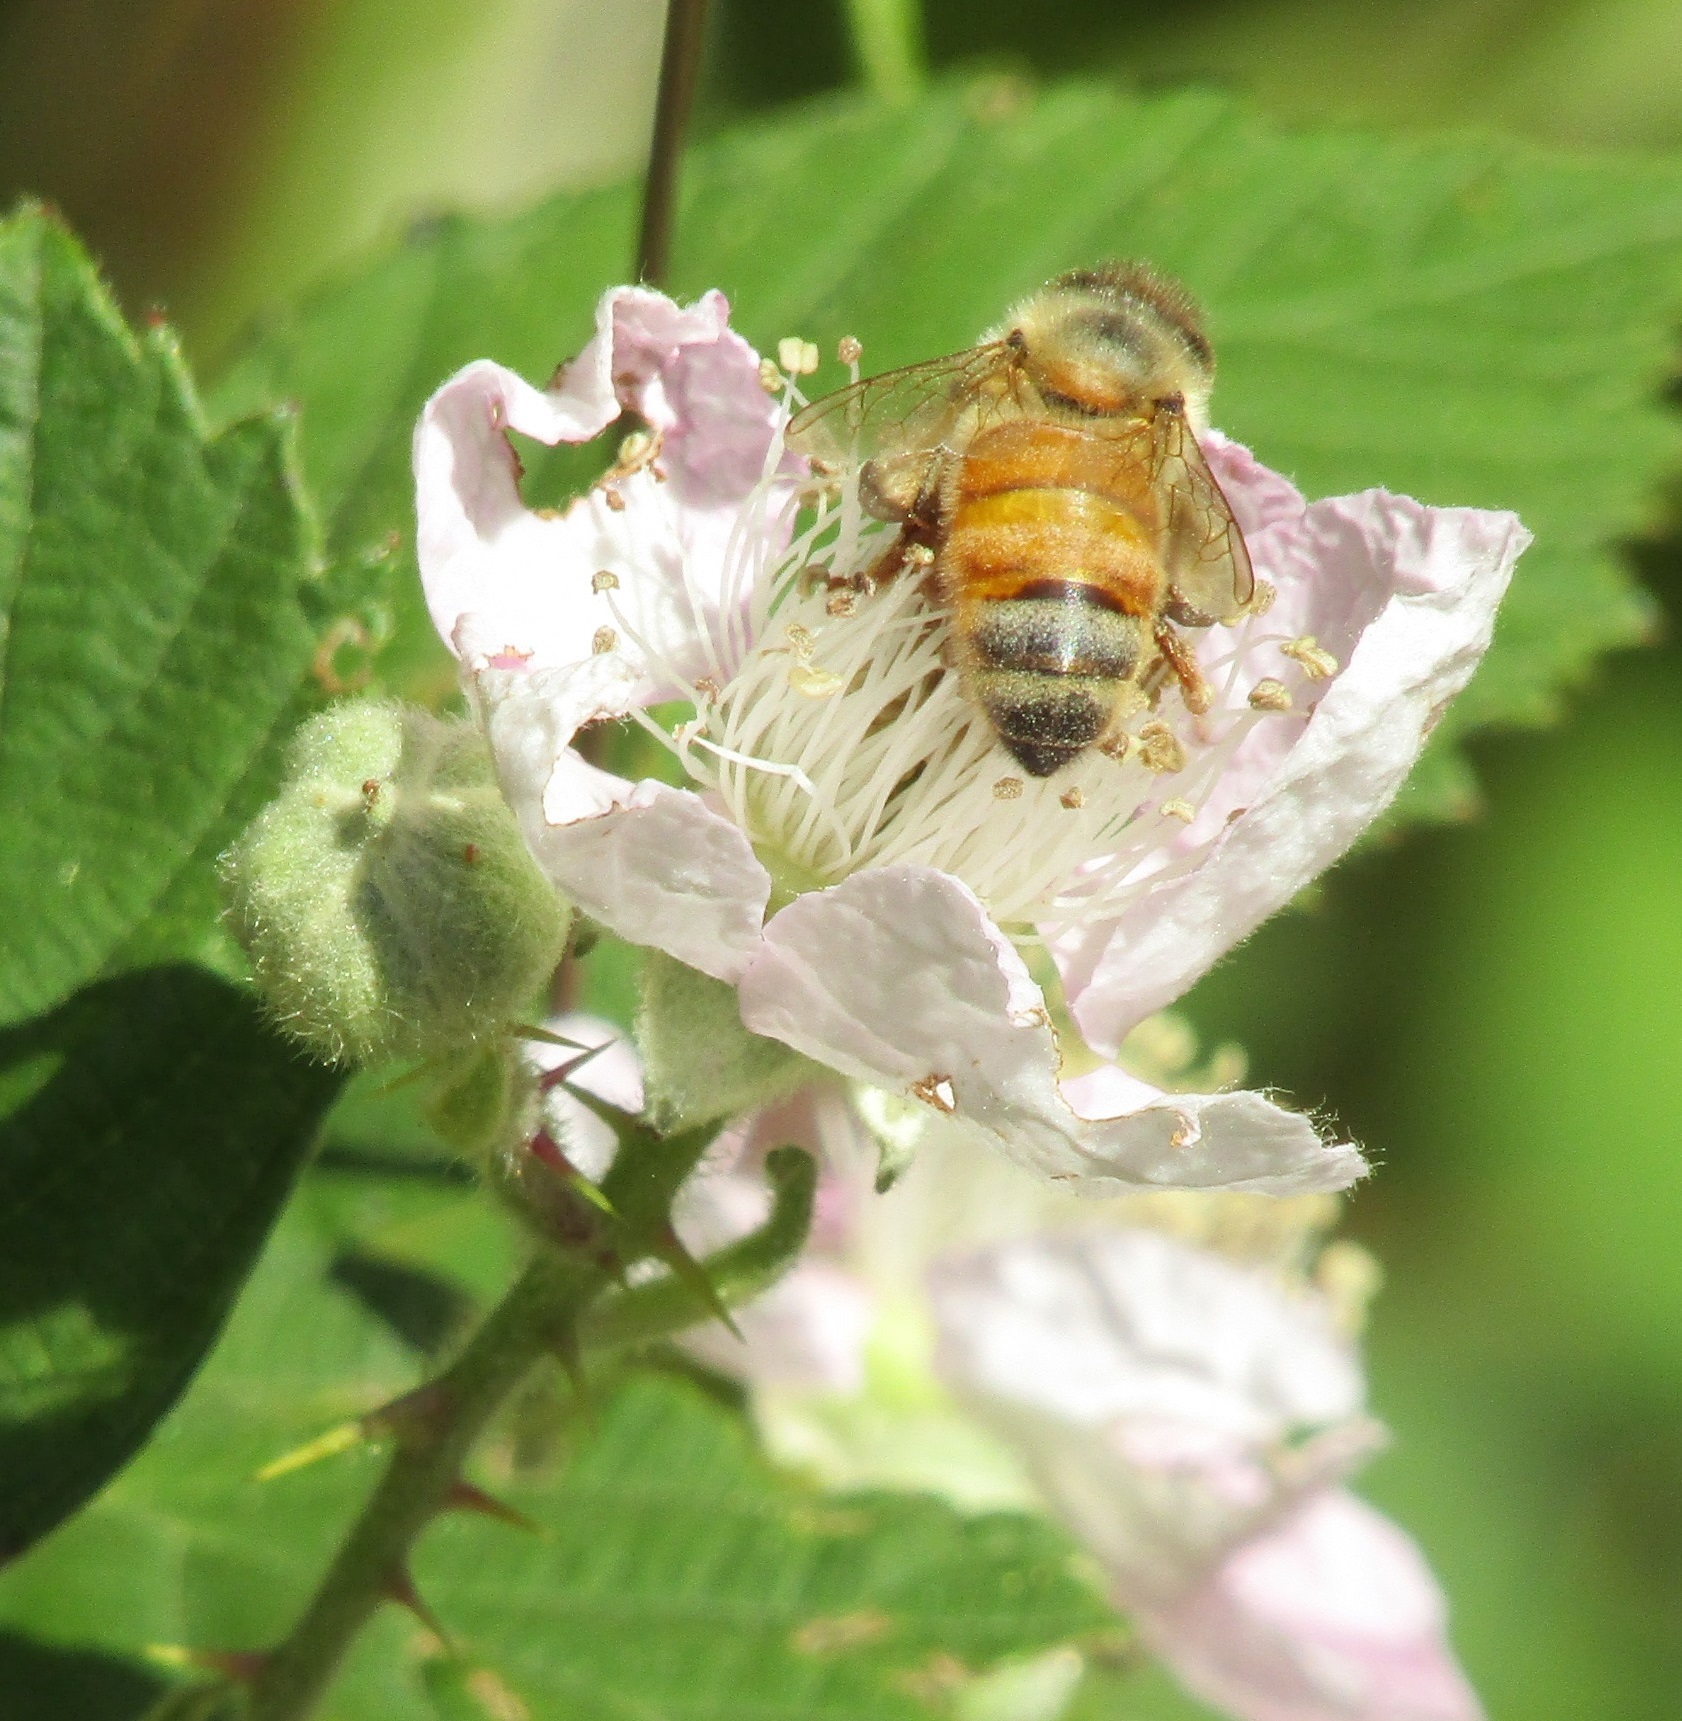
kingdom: Animalia
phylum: Arthropoda
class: Insecta
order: Hymenoptera
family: Apidae
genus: Apis
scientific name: Apis mellifera
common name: Honey bee
